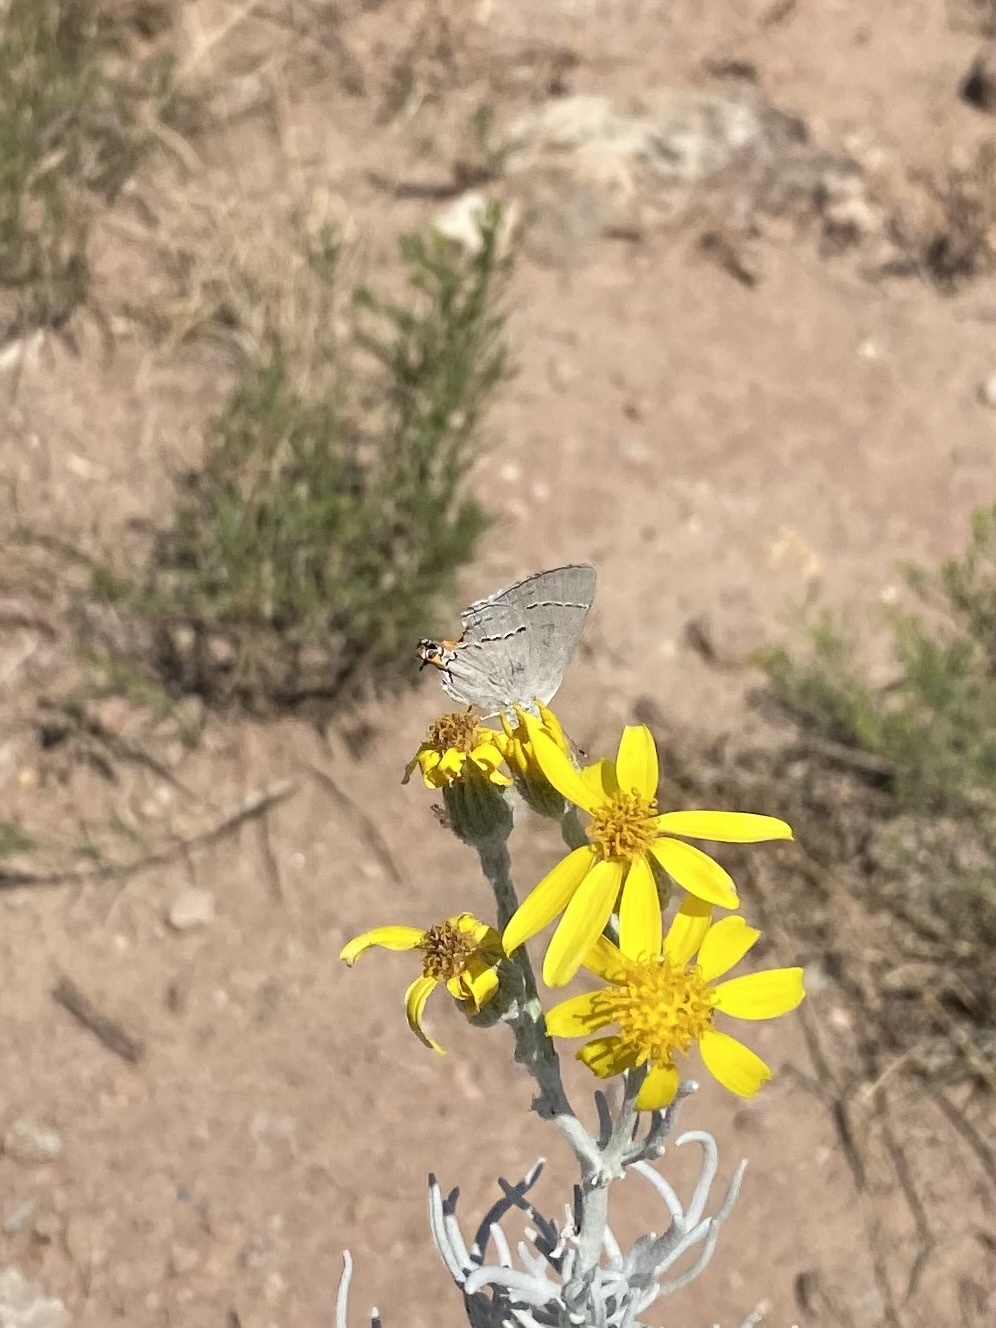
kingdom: Animalia
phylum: Arthropoda
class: Insecta
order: Lepidoptera
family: Lycaenidae
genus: Strymon
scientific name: Strymon melinus
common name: Gray hairstreak
